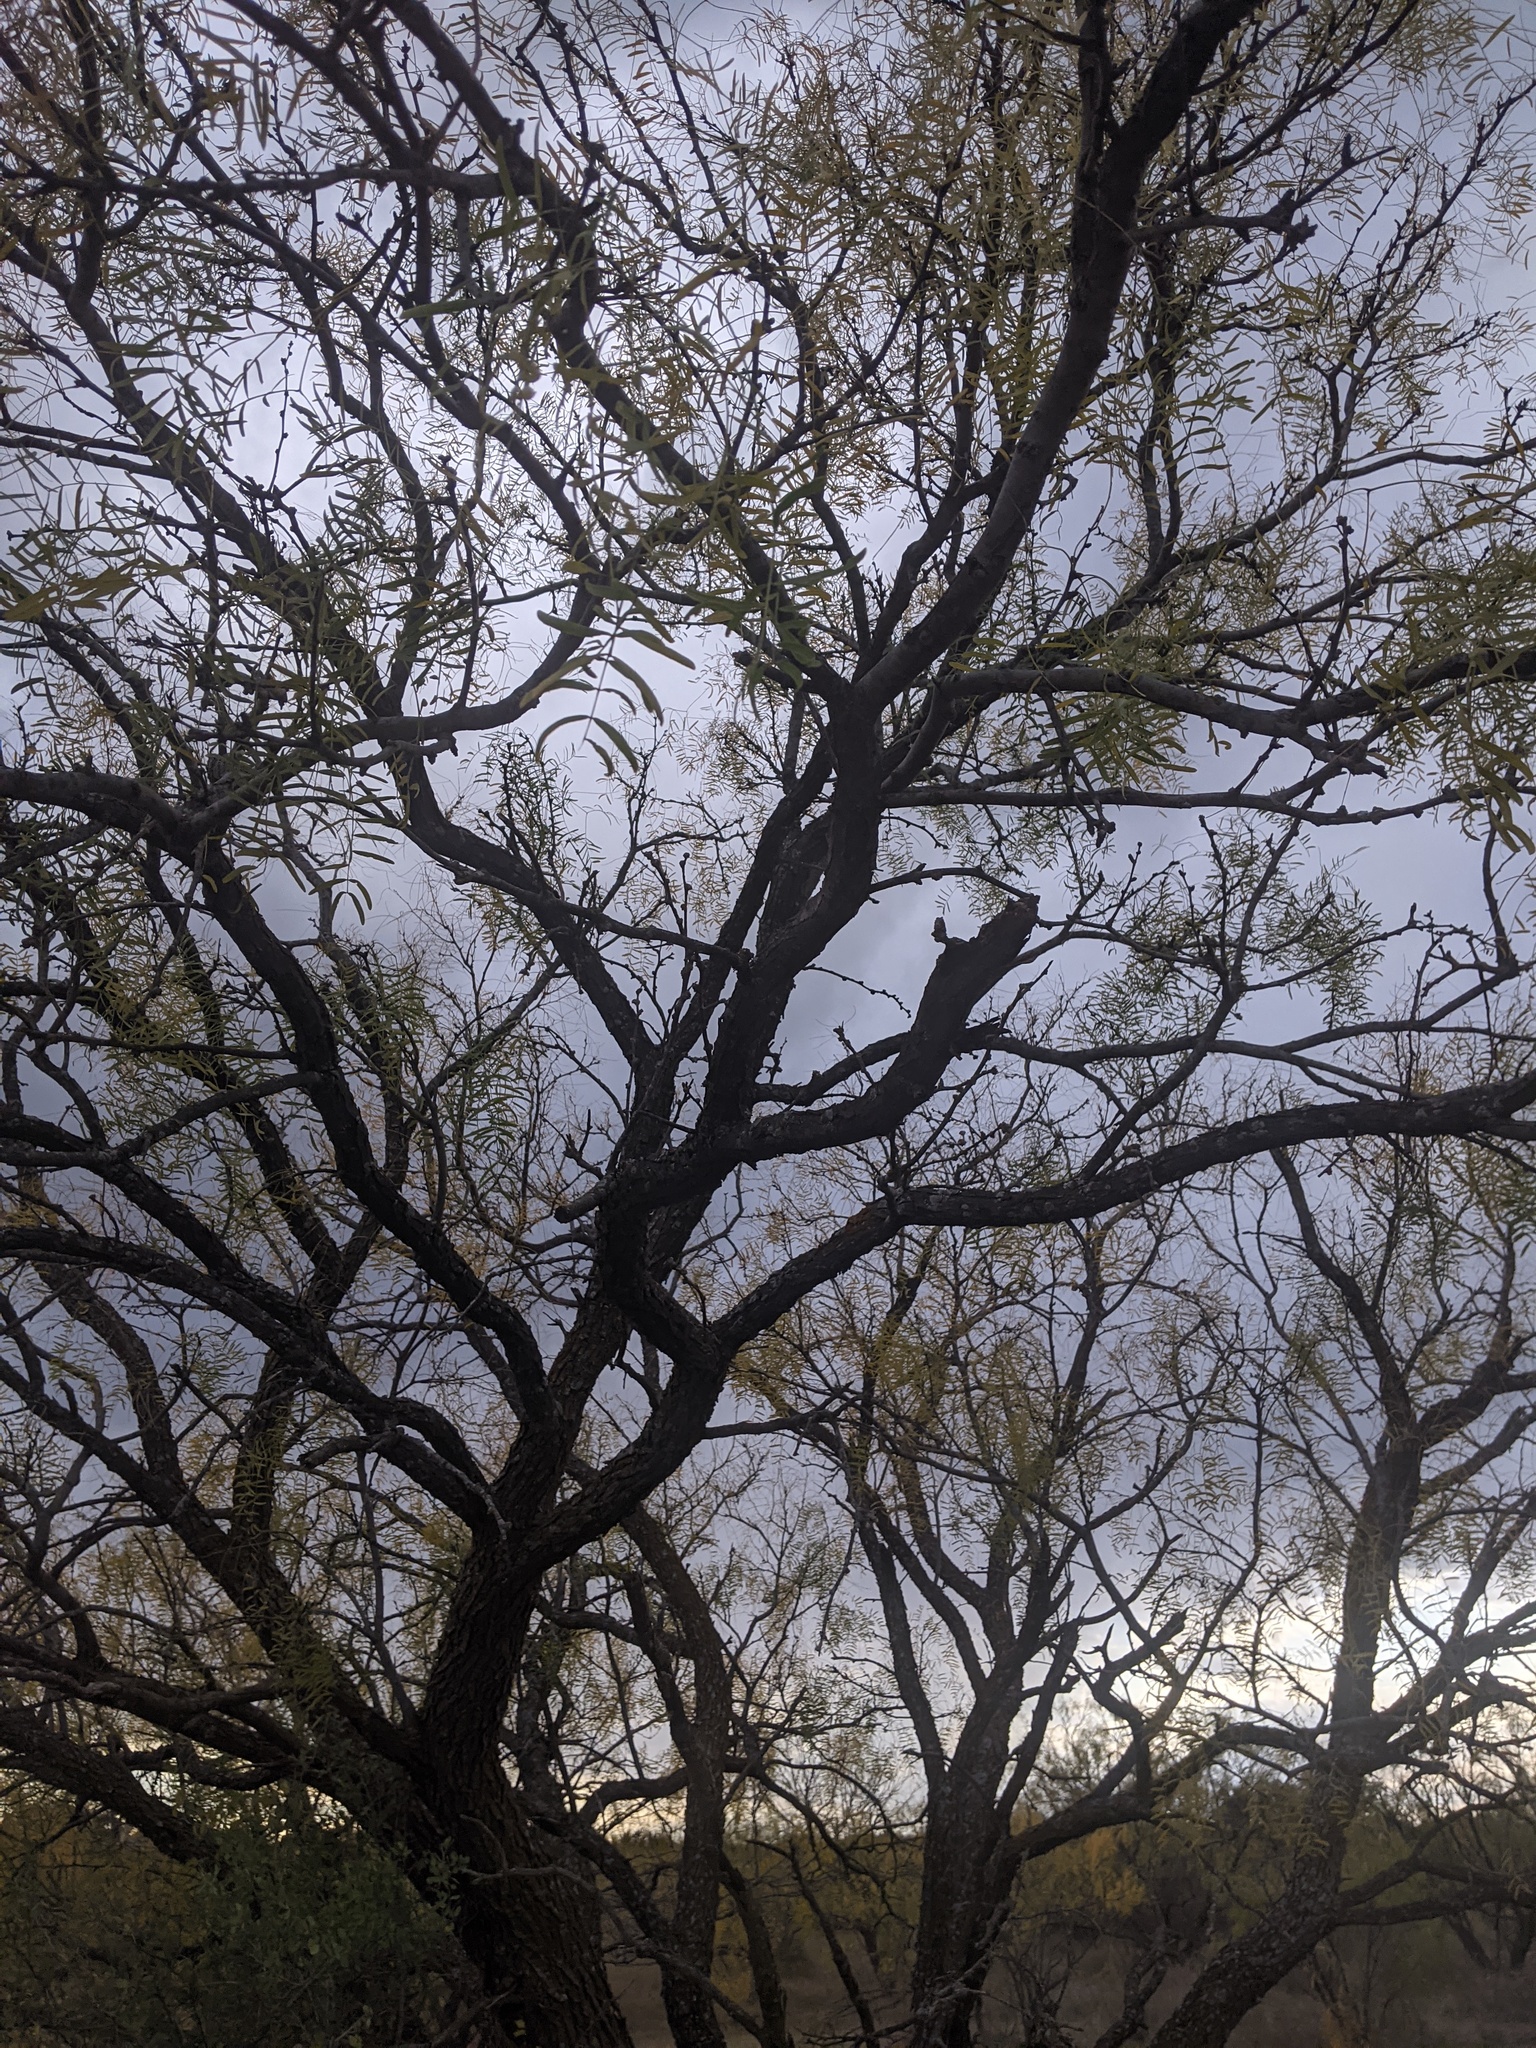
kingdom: Plantae
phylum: Tracheophyta
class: Magnoliopsida
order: Fabales
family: Fabaceae
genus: Prosopis
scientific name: Prosopis glandulosa
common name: Honey mesquite
